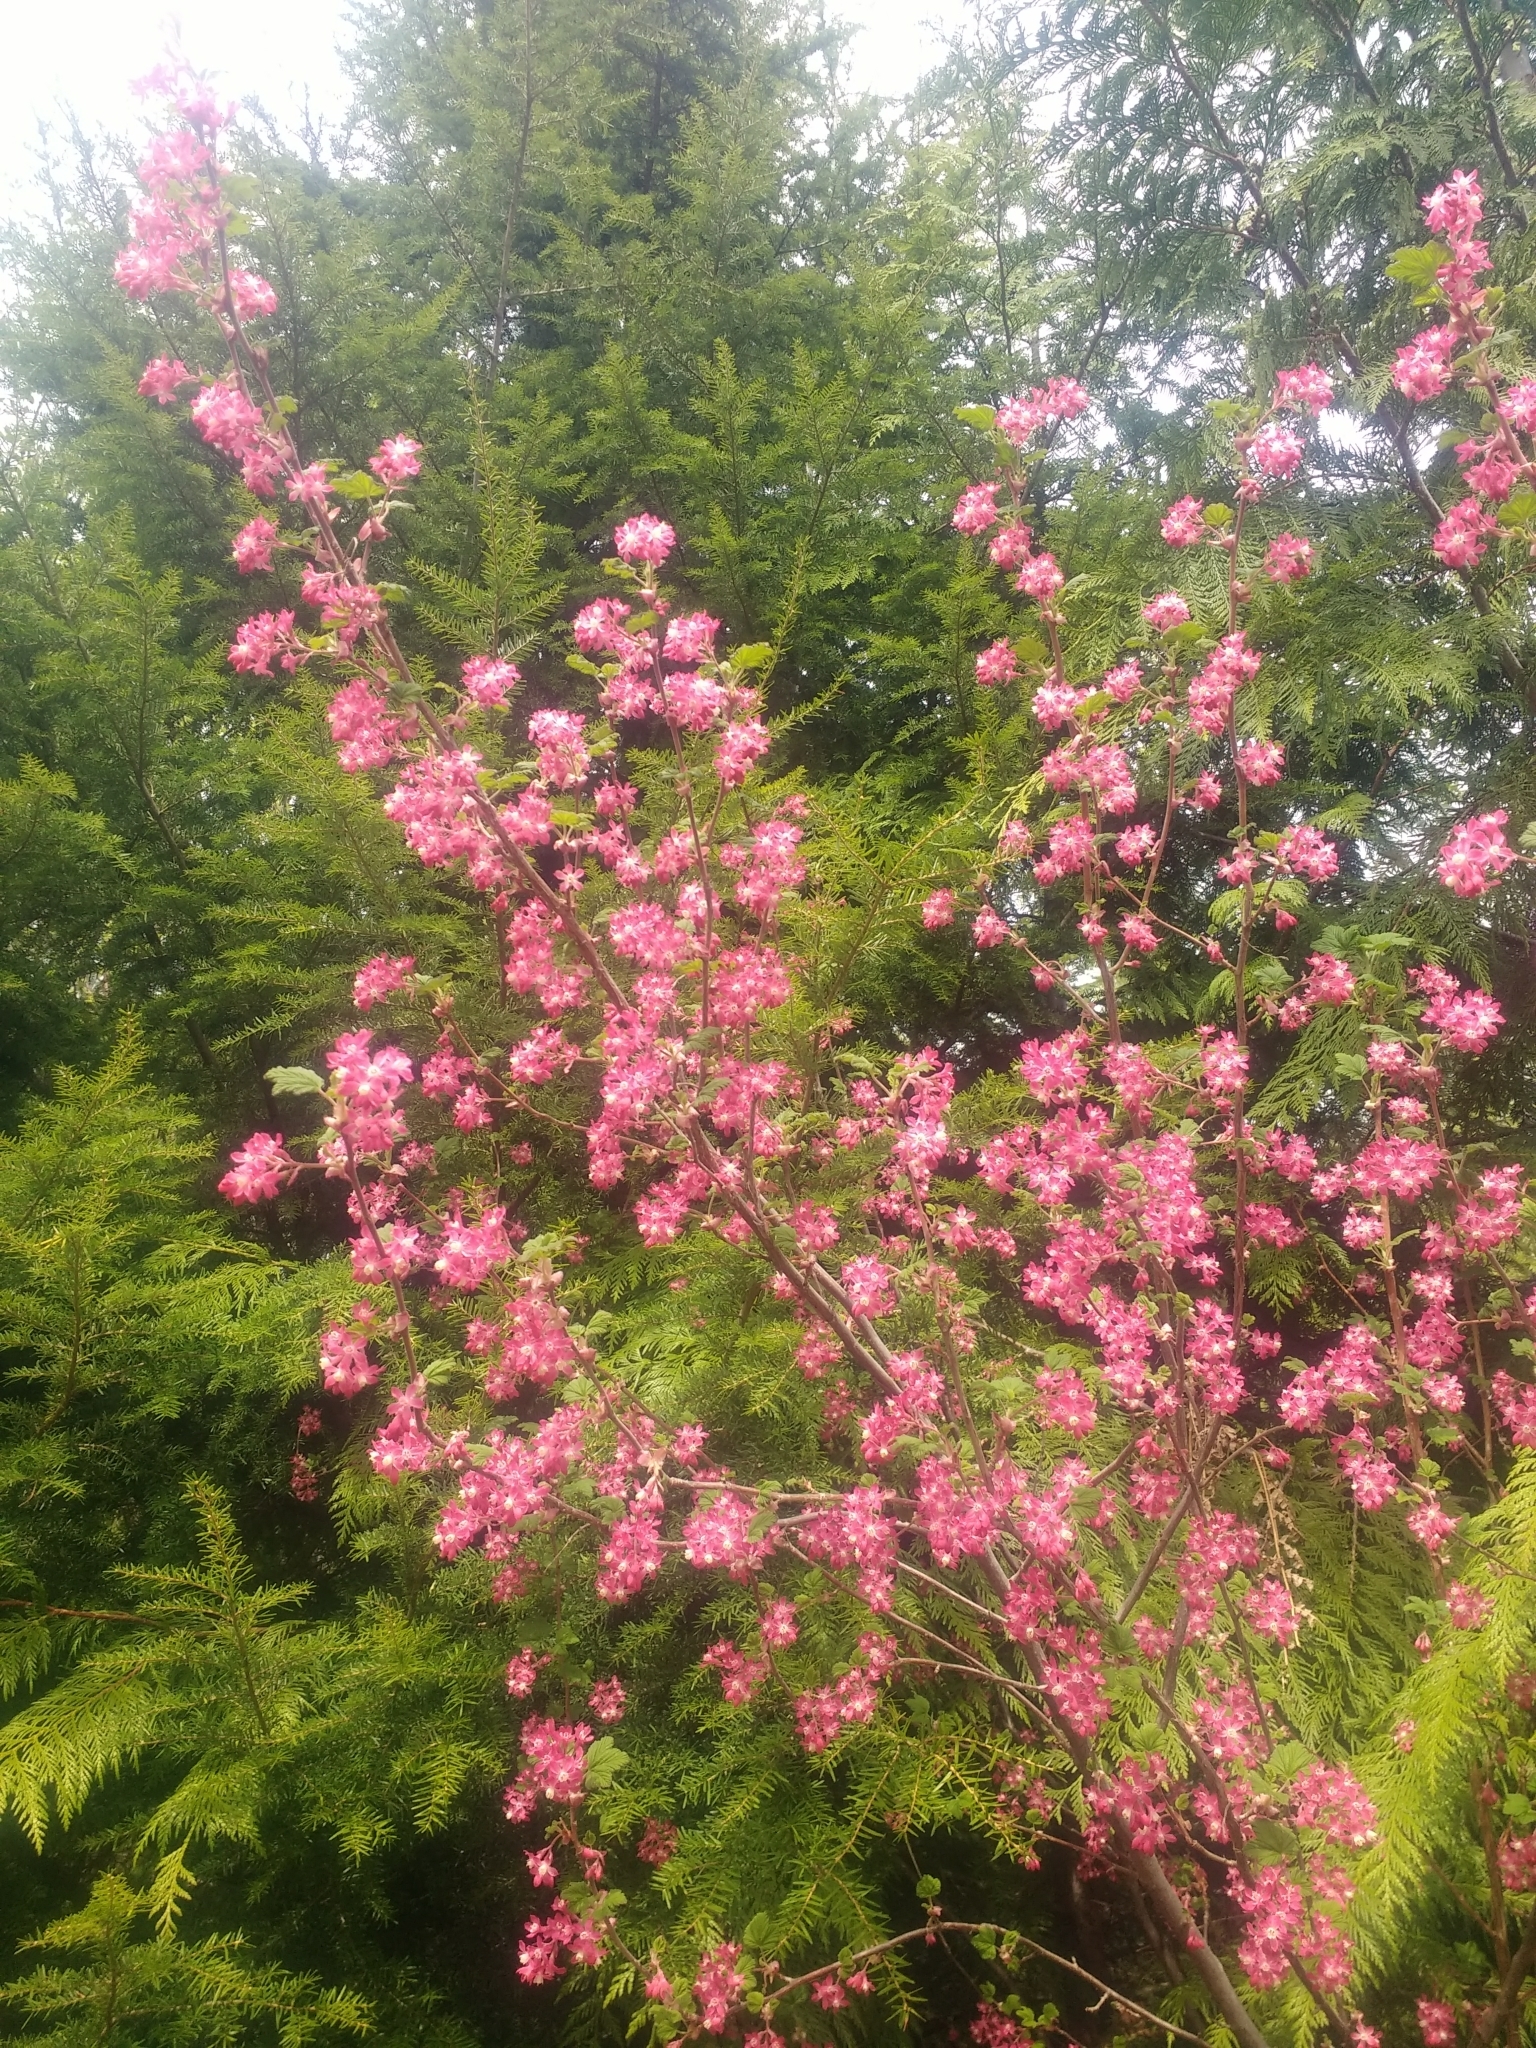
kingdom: Plantae
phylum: Tracheophyta
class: Magnoliopsida
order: Saxifragales
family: Grossulariaceae
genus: Ribes
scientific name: Ribes sanguineum
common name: Flowering currant
